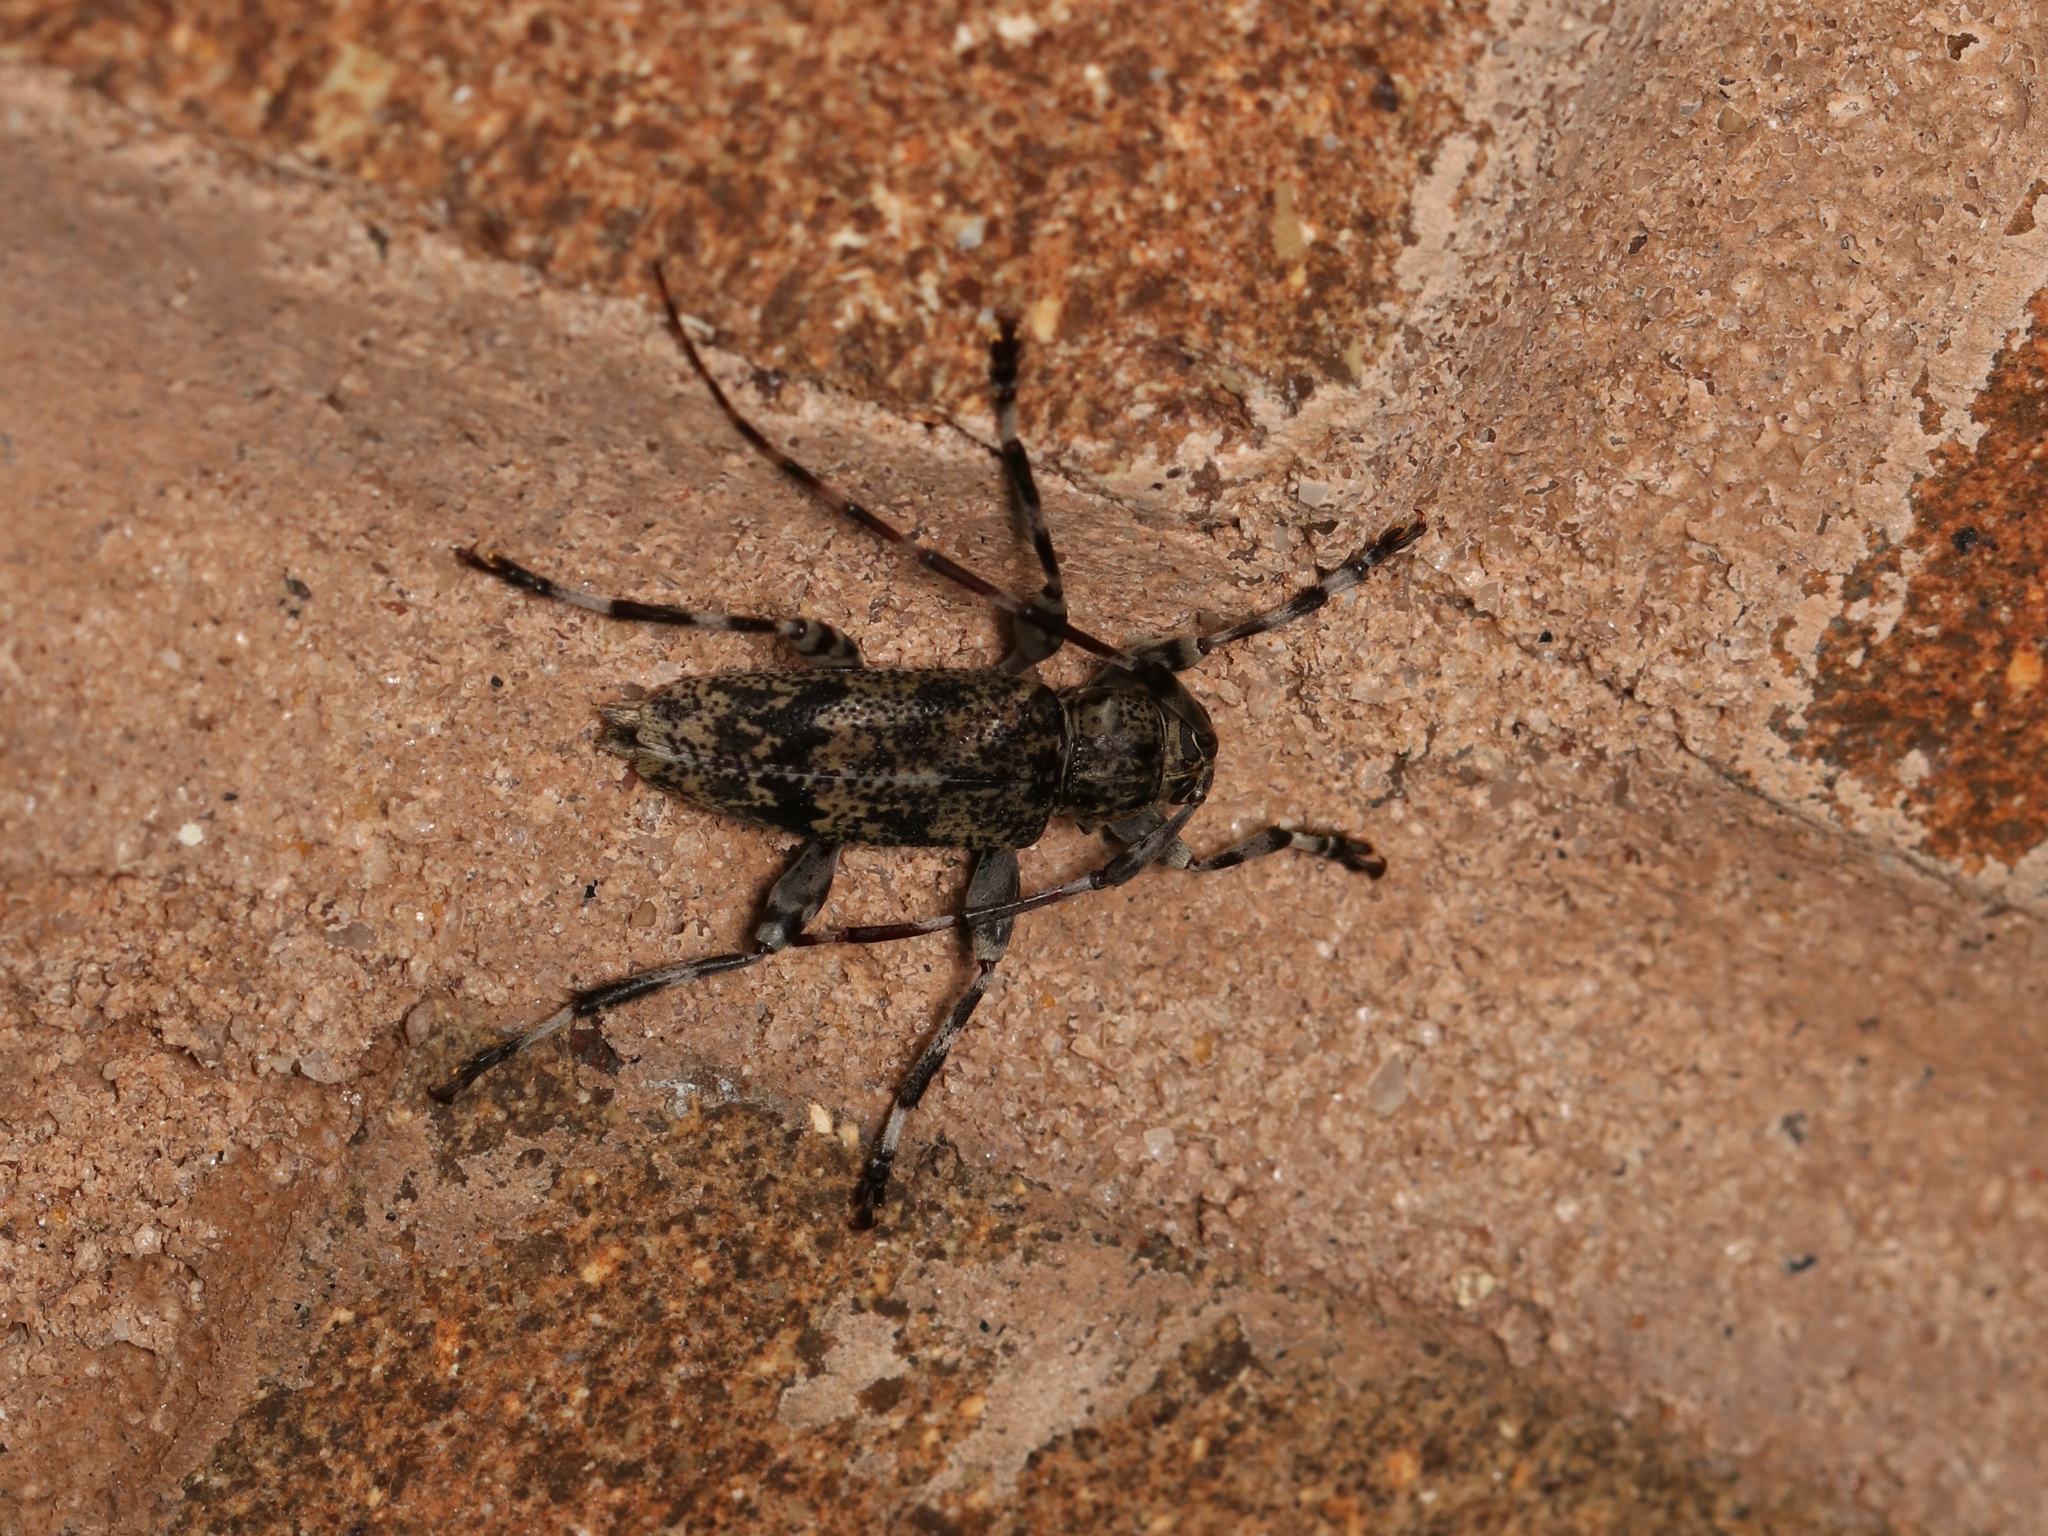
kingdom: Animalia
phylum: Arthropoda
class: Insecta
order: Coleoptera
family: Cerambycidae
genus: Graphisurus
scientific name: Graphisurus fasciatus
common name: Banded graphisurus
